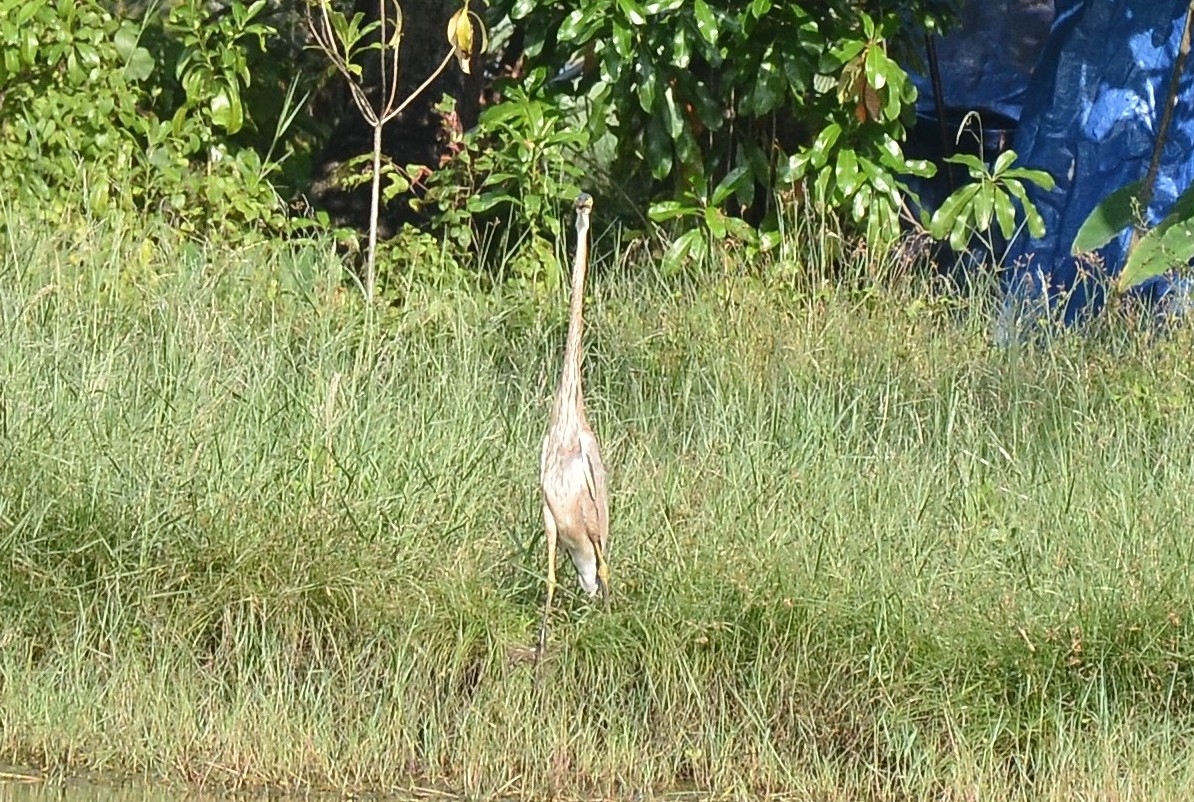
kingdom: Animalia
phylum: Chordata
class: Aves
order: Pelecaniformes
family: Ardeidae
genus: Ardea
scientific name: Ardea purpurea
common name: Purple heron
